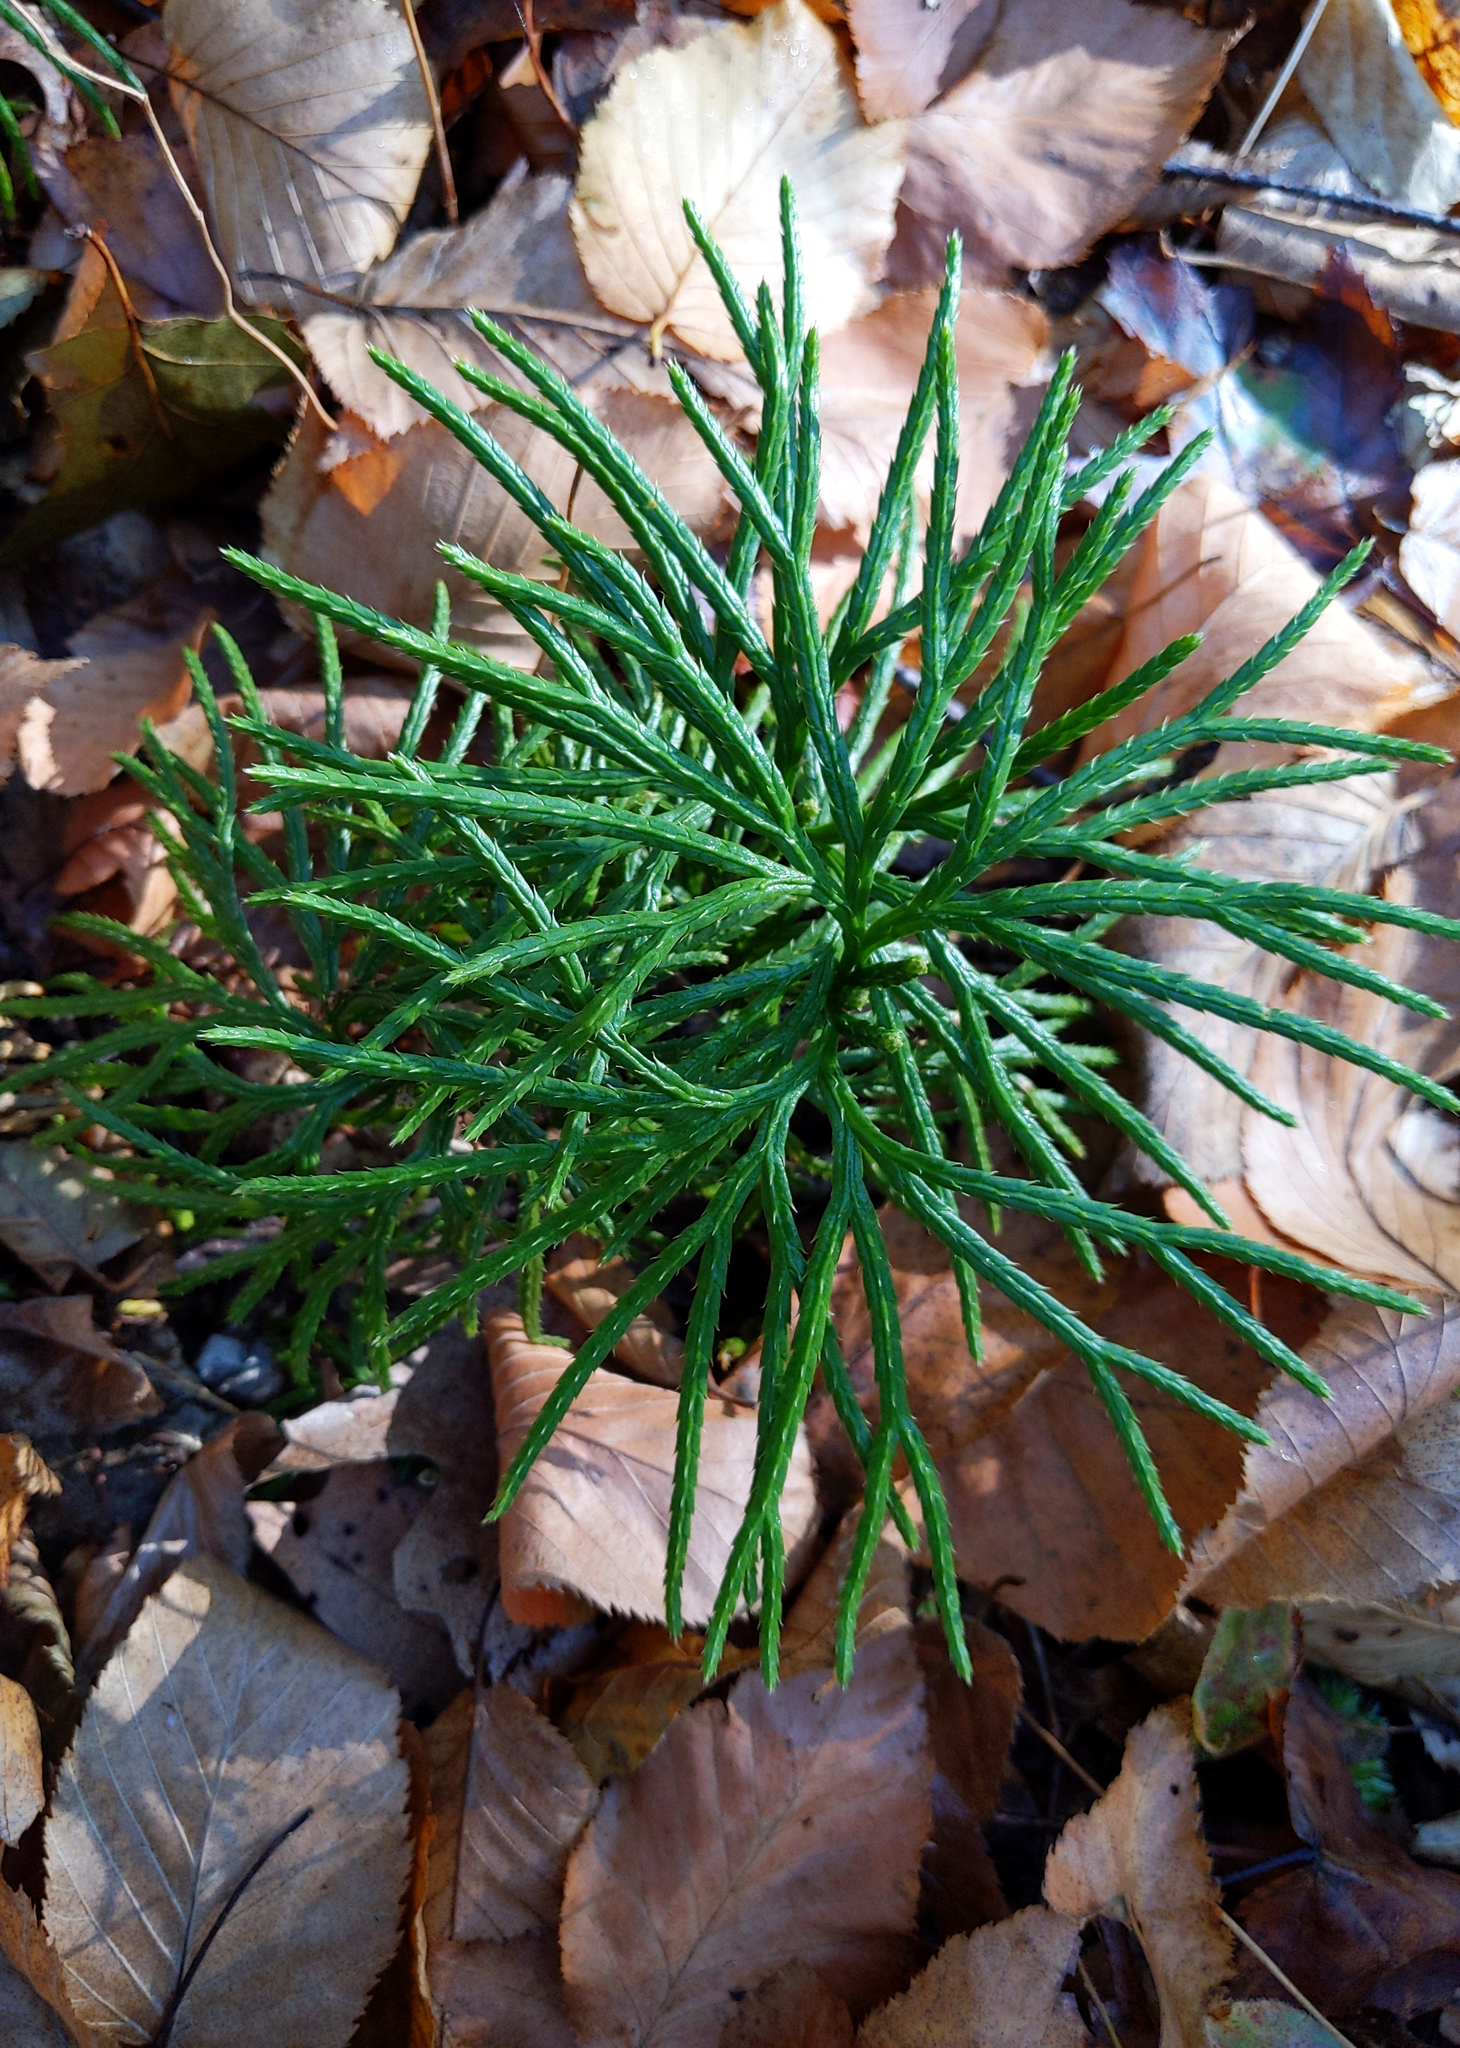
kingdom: Plantae
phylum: Tracheophyta
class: Lycopodiopsida
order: Lycopodiales
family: Lycopodiaceae
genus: Diphasiastrum
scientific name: Diphasiastrum digitatum
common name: Southern running-pine
